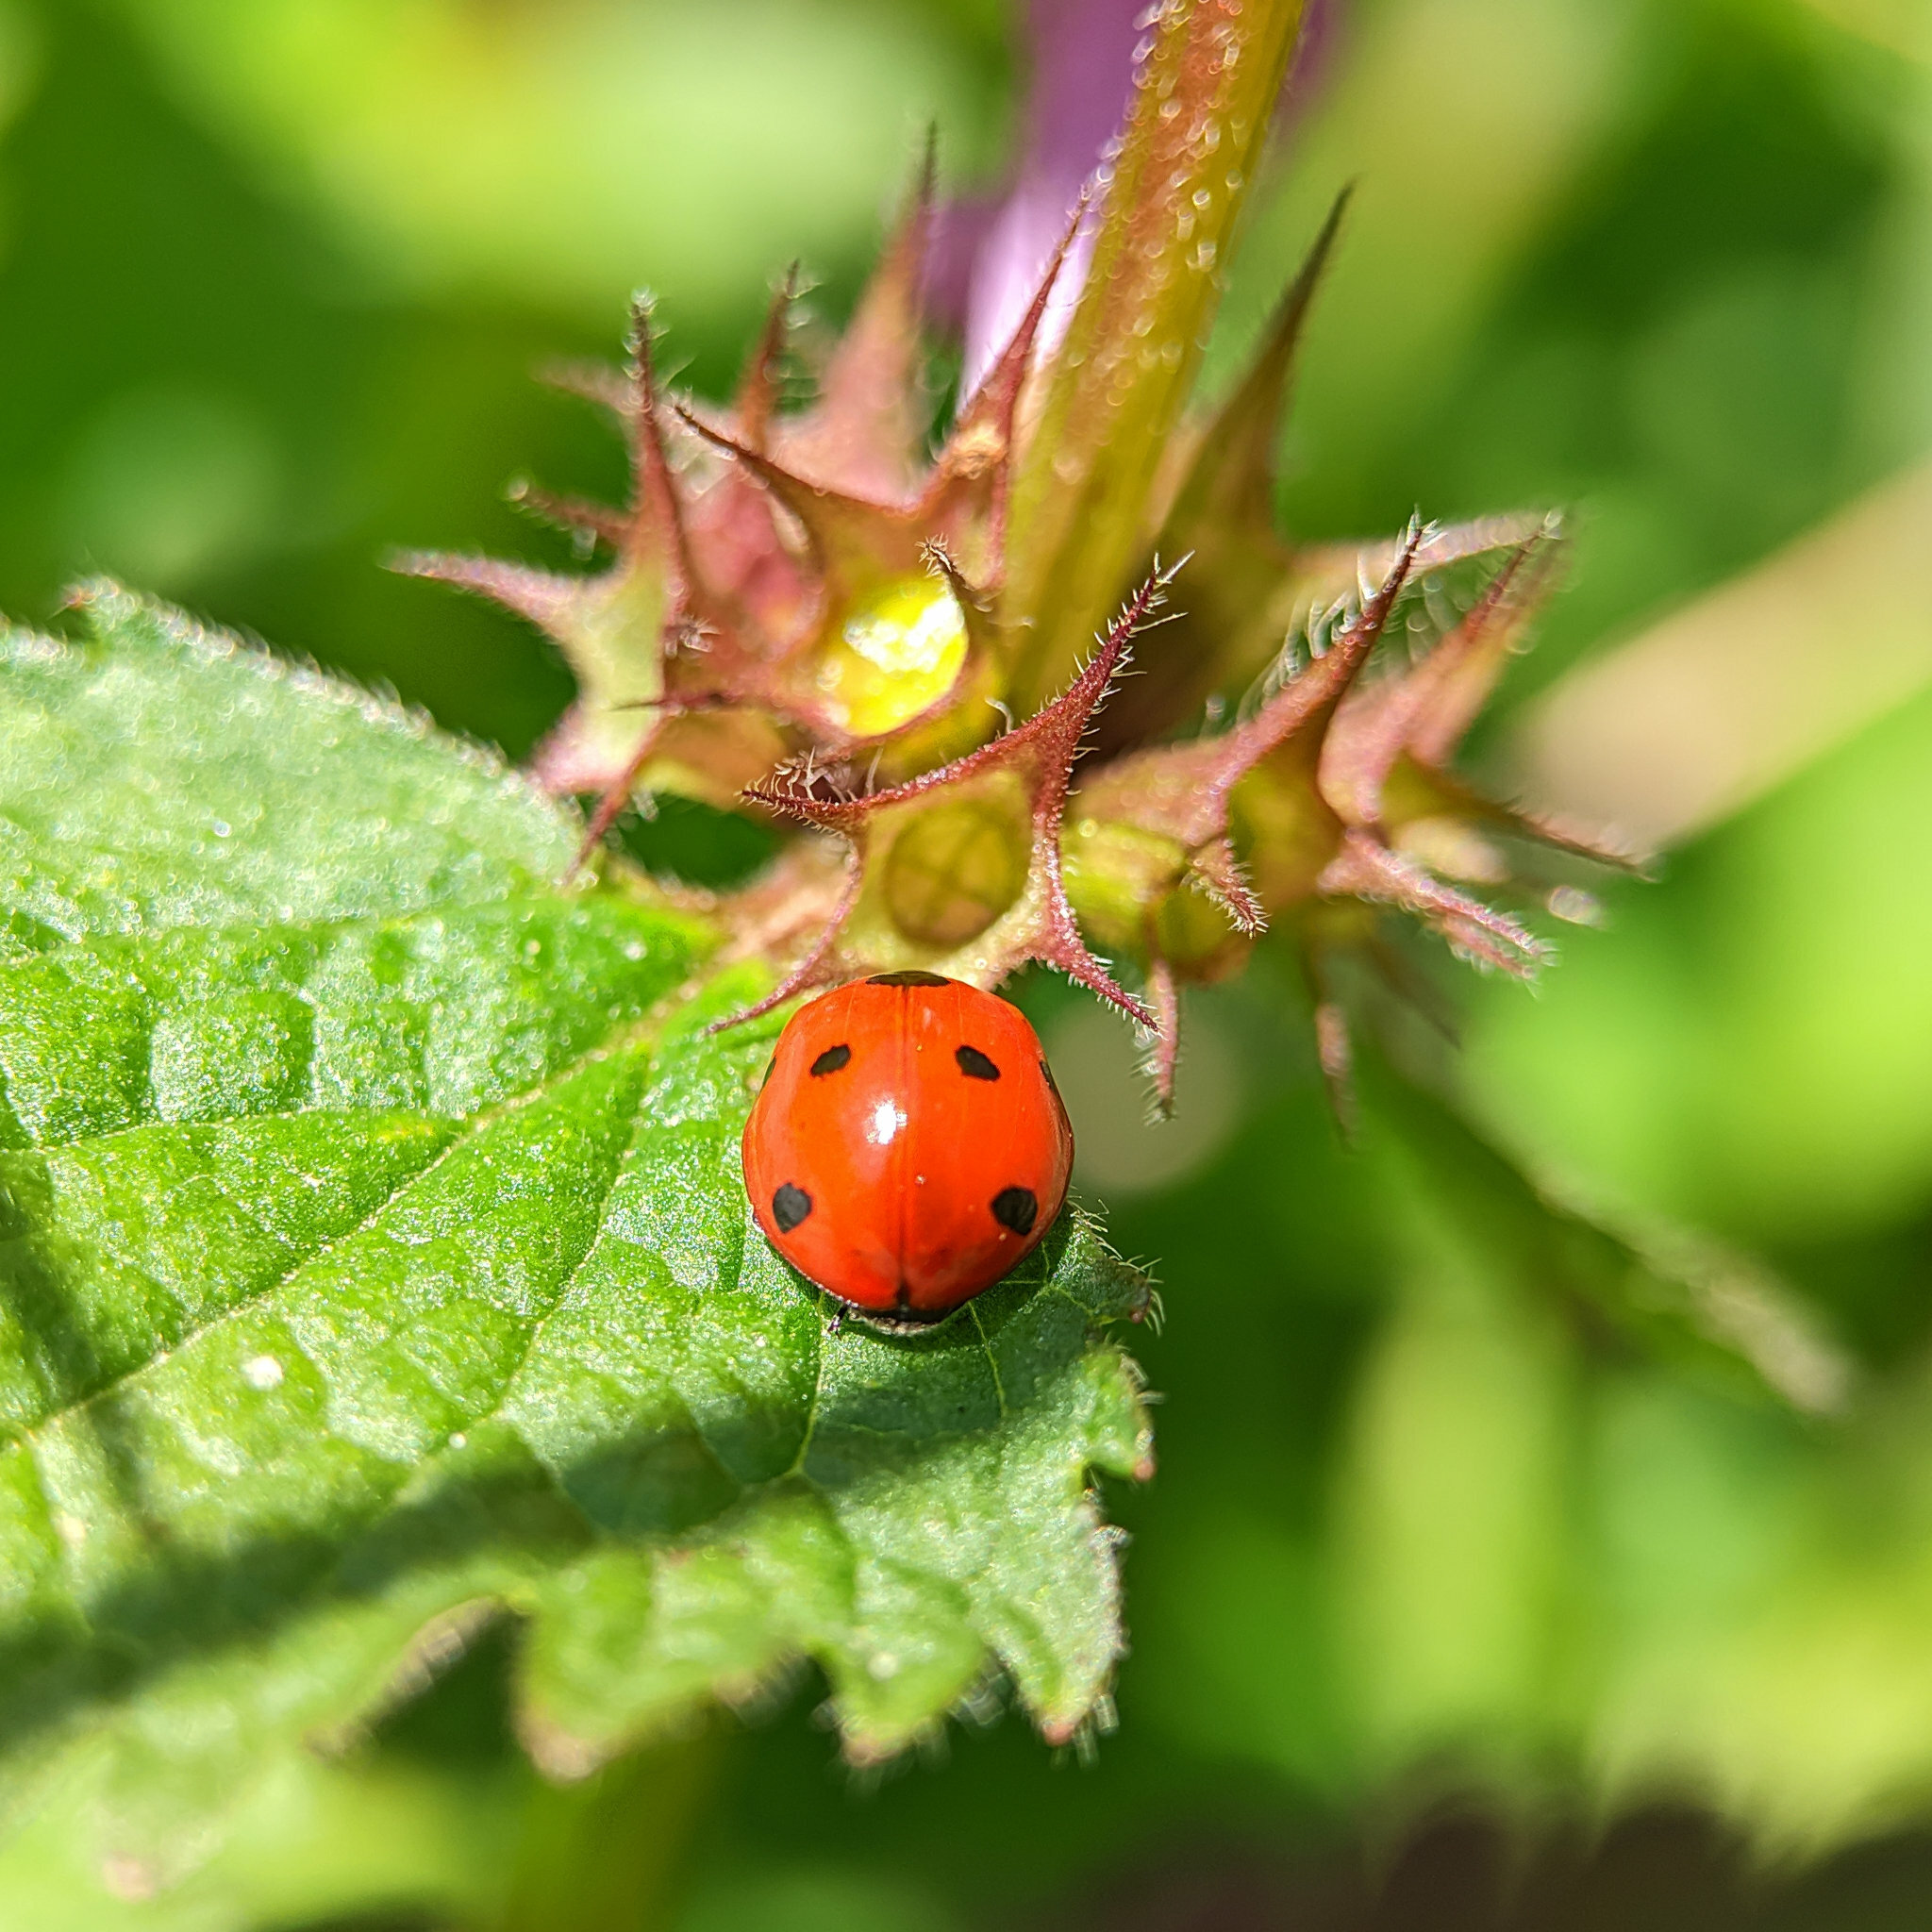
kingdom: Animalia
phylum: Arthropoda
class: Insecta
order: Coleoptera
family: Coccinellidae
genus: Coccinella
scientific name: Coccinella septempunctata
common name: Sevenspotted lady beetle
